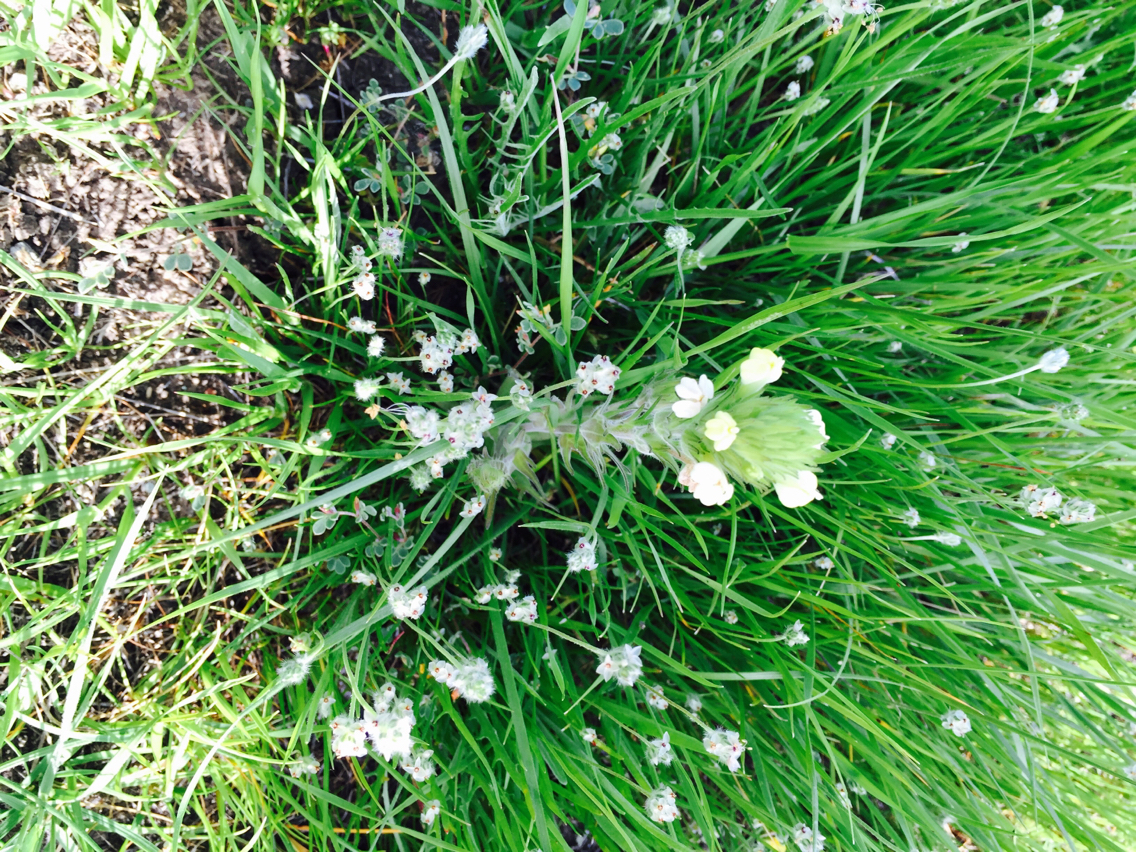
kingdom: Plantae
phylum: Tracheophyta
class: Magnoliopsida
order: Lamiales
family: Orobanchaceae
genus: Castilleja
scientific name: Castilleja rubicundula
